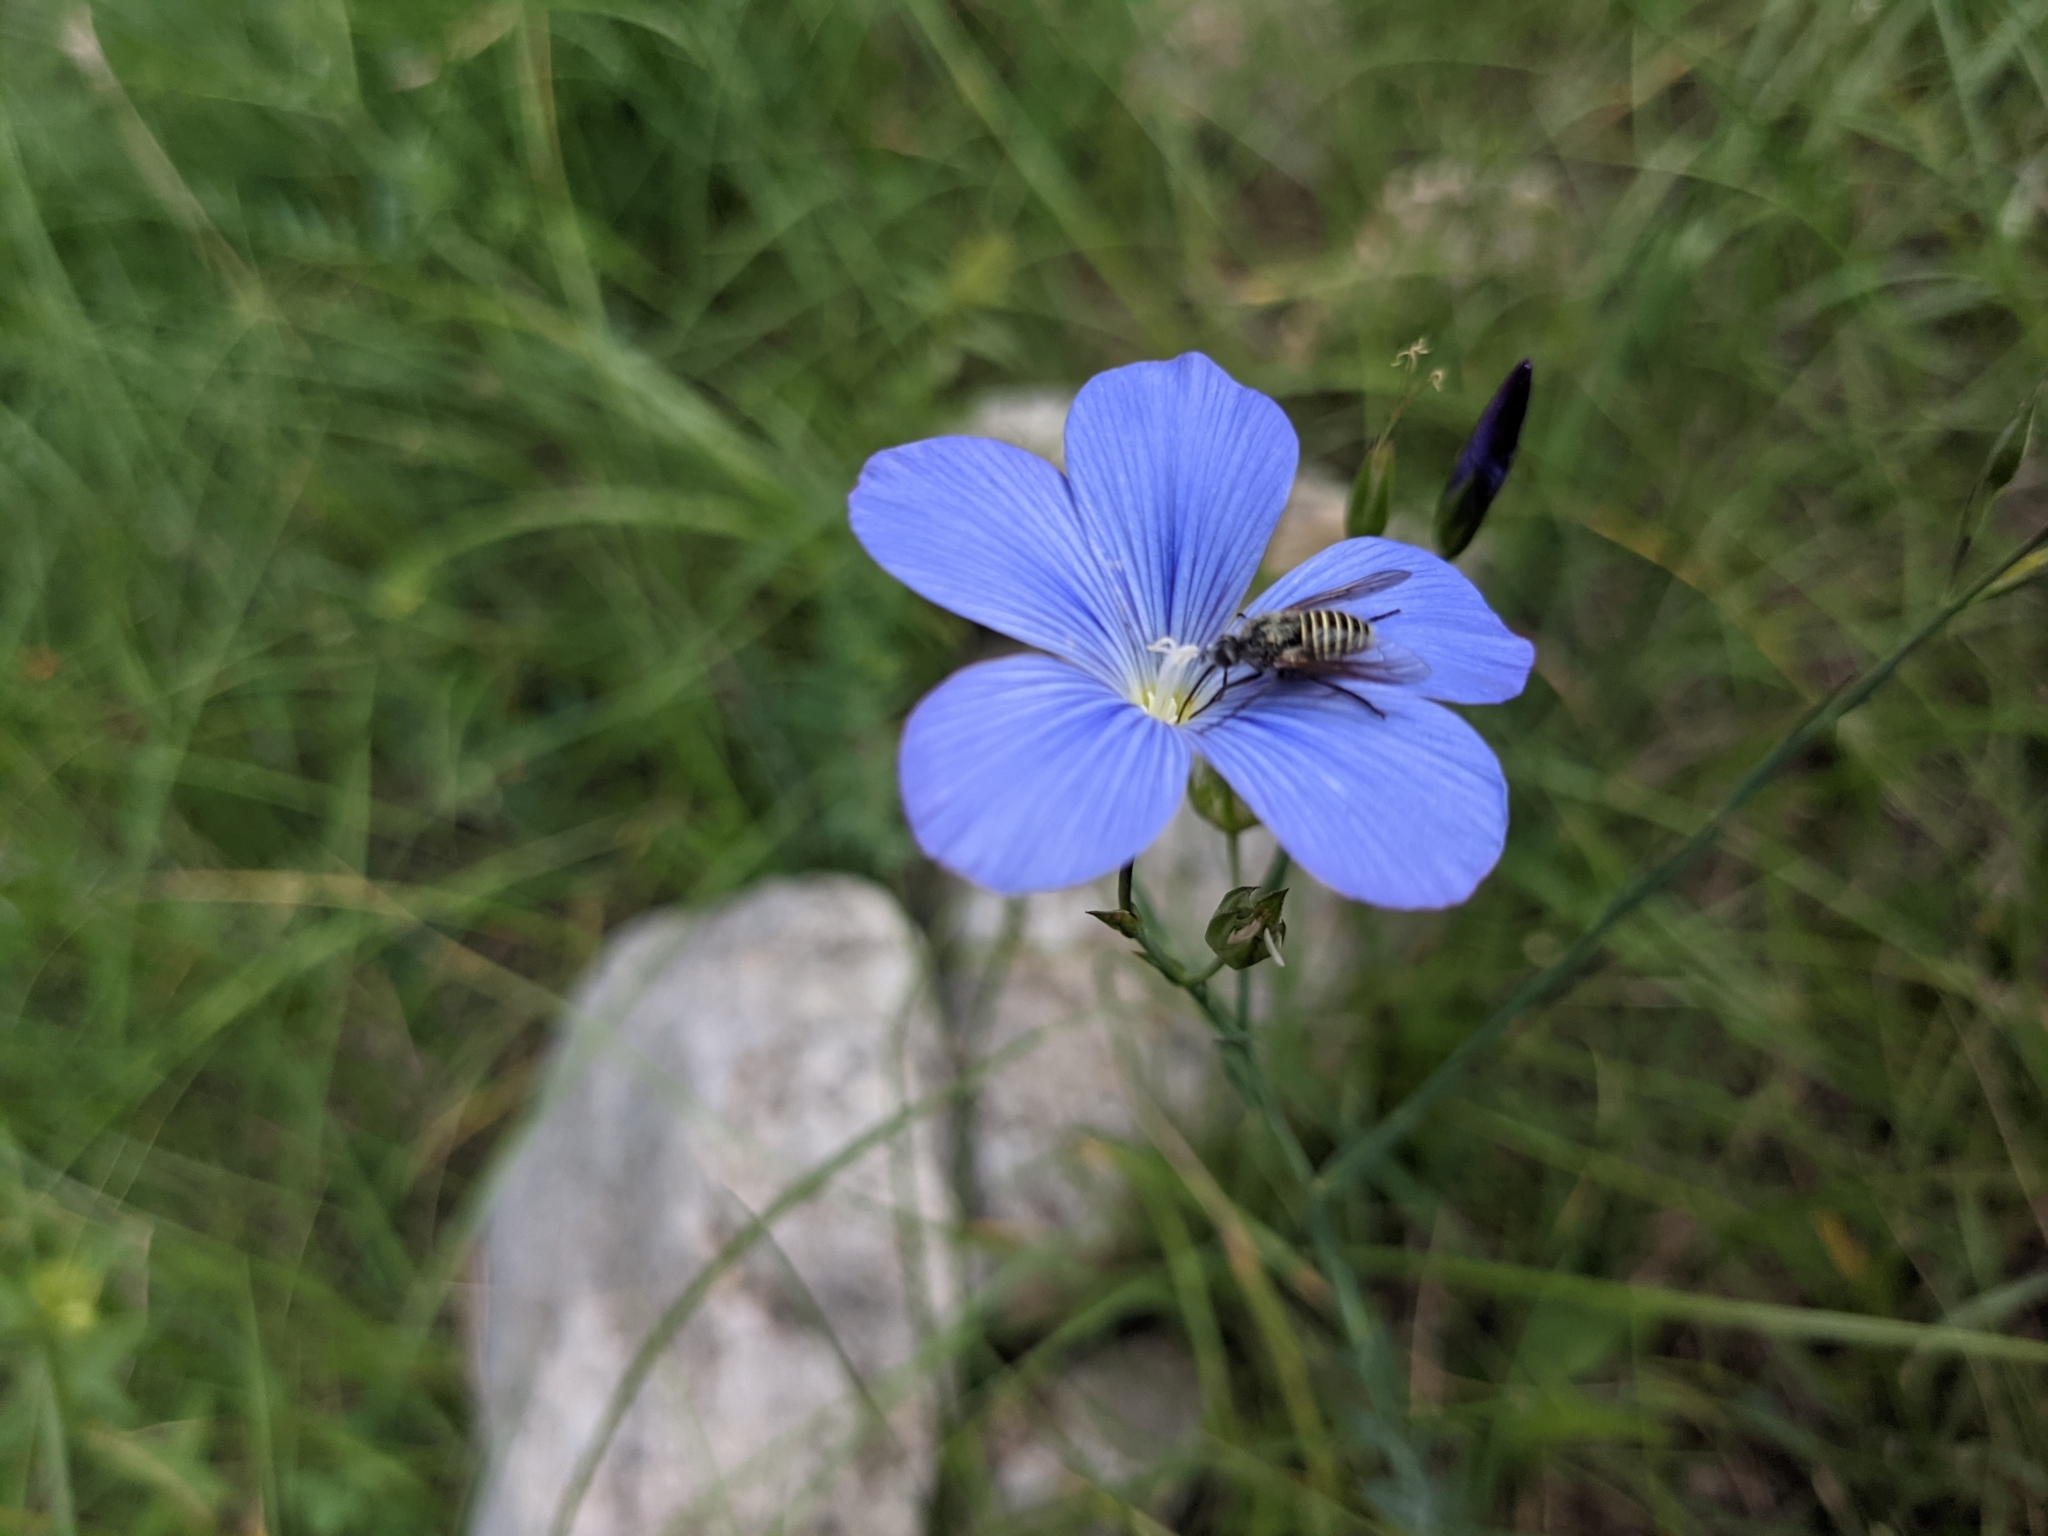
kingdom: Animalia
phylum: Arthropoda
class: Insecta
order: Diptera
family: Bombyliidae
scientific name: Bombyliidae
